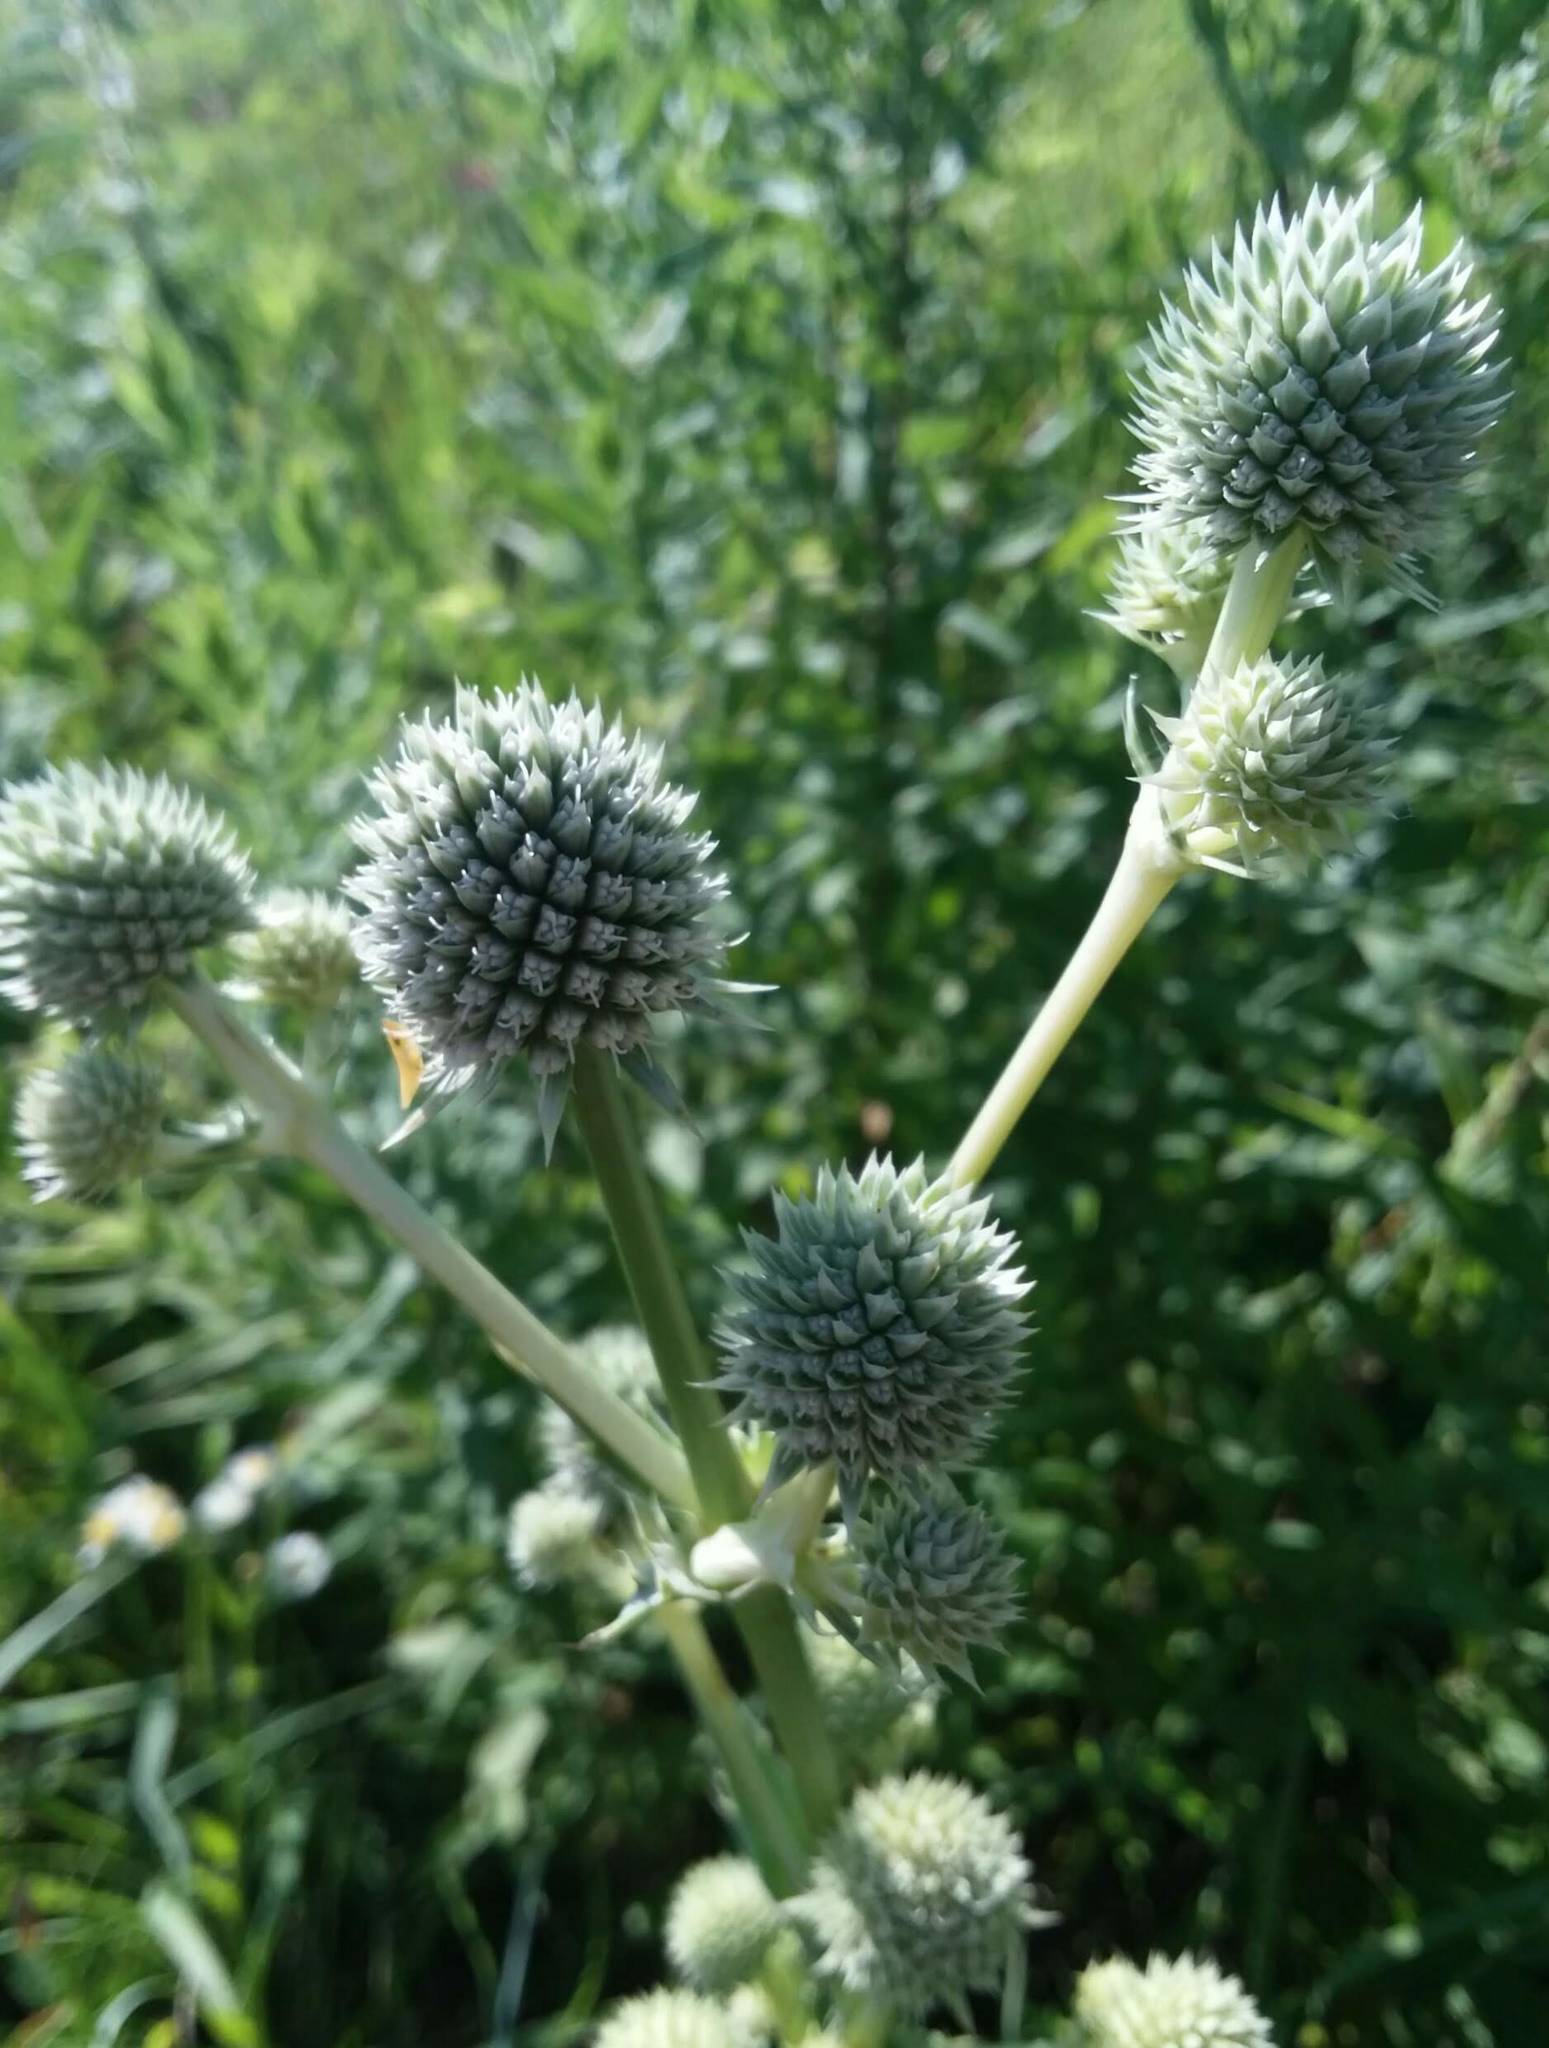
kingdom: Plantae
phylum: Tracheophyta
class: Magnoliopsida
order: Apiales
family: Apiaceae
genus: Eryngium
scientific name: Eryngium yuccifolium
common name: Button eryngo
